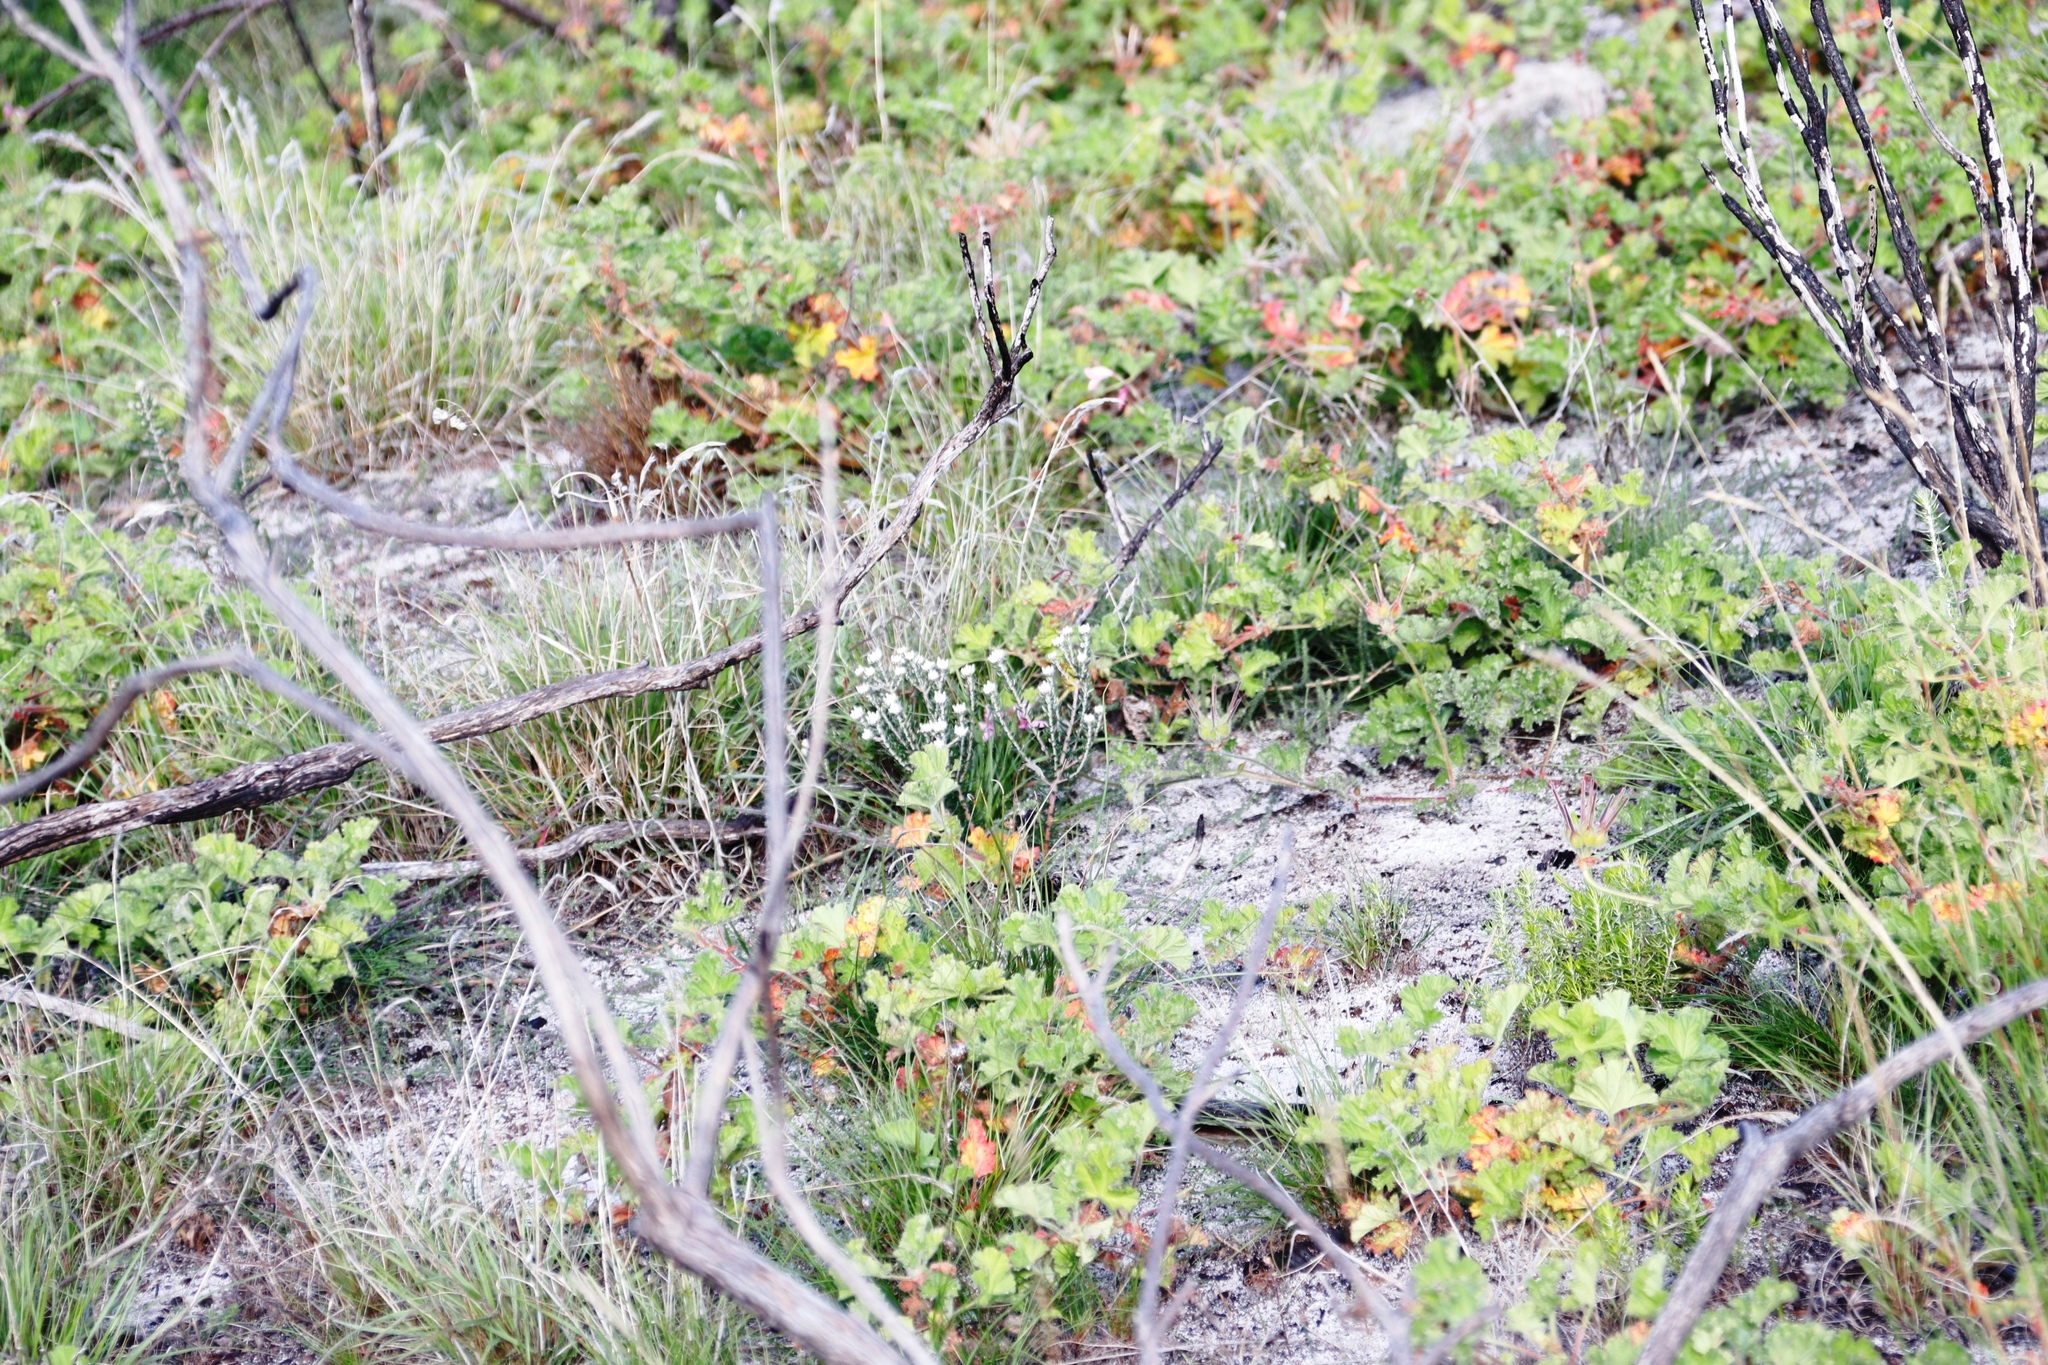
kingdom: Plantae
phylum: Tracheophyta
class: Magnoliopsida
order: Geraniales
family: Geraniaceae
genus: Pelargonium
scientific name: Pelargonium capitatum
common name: Rose scented geranium
